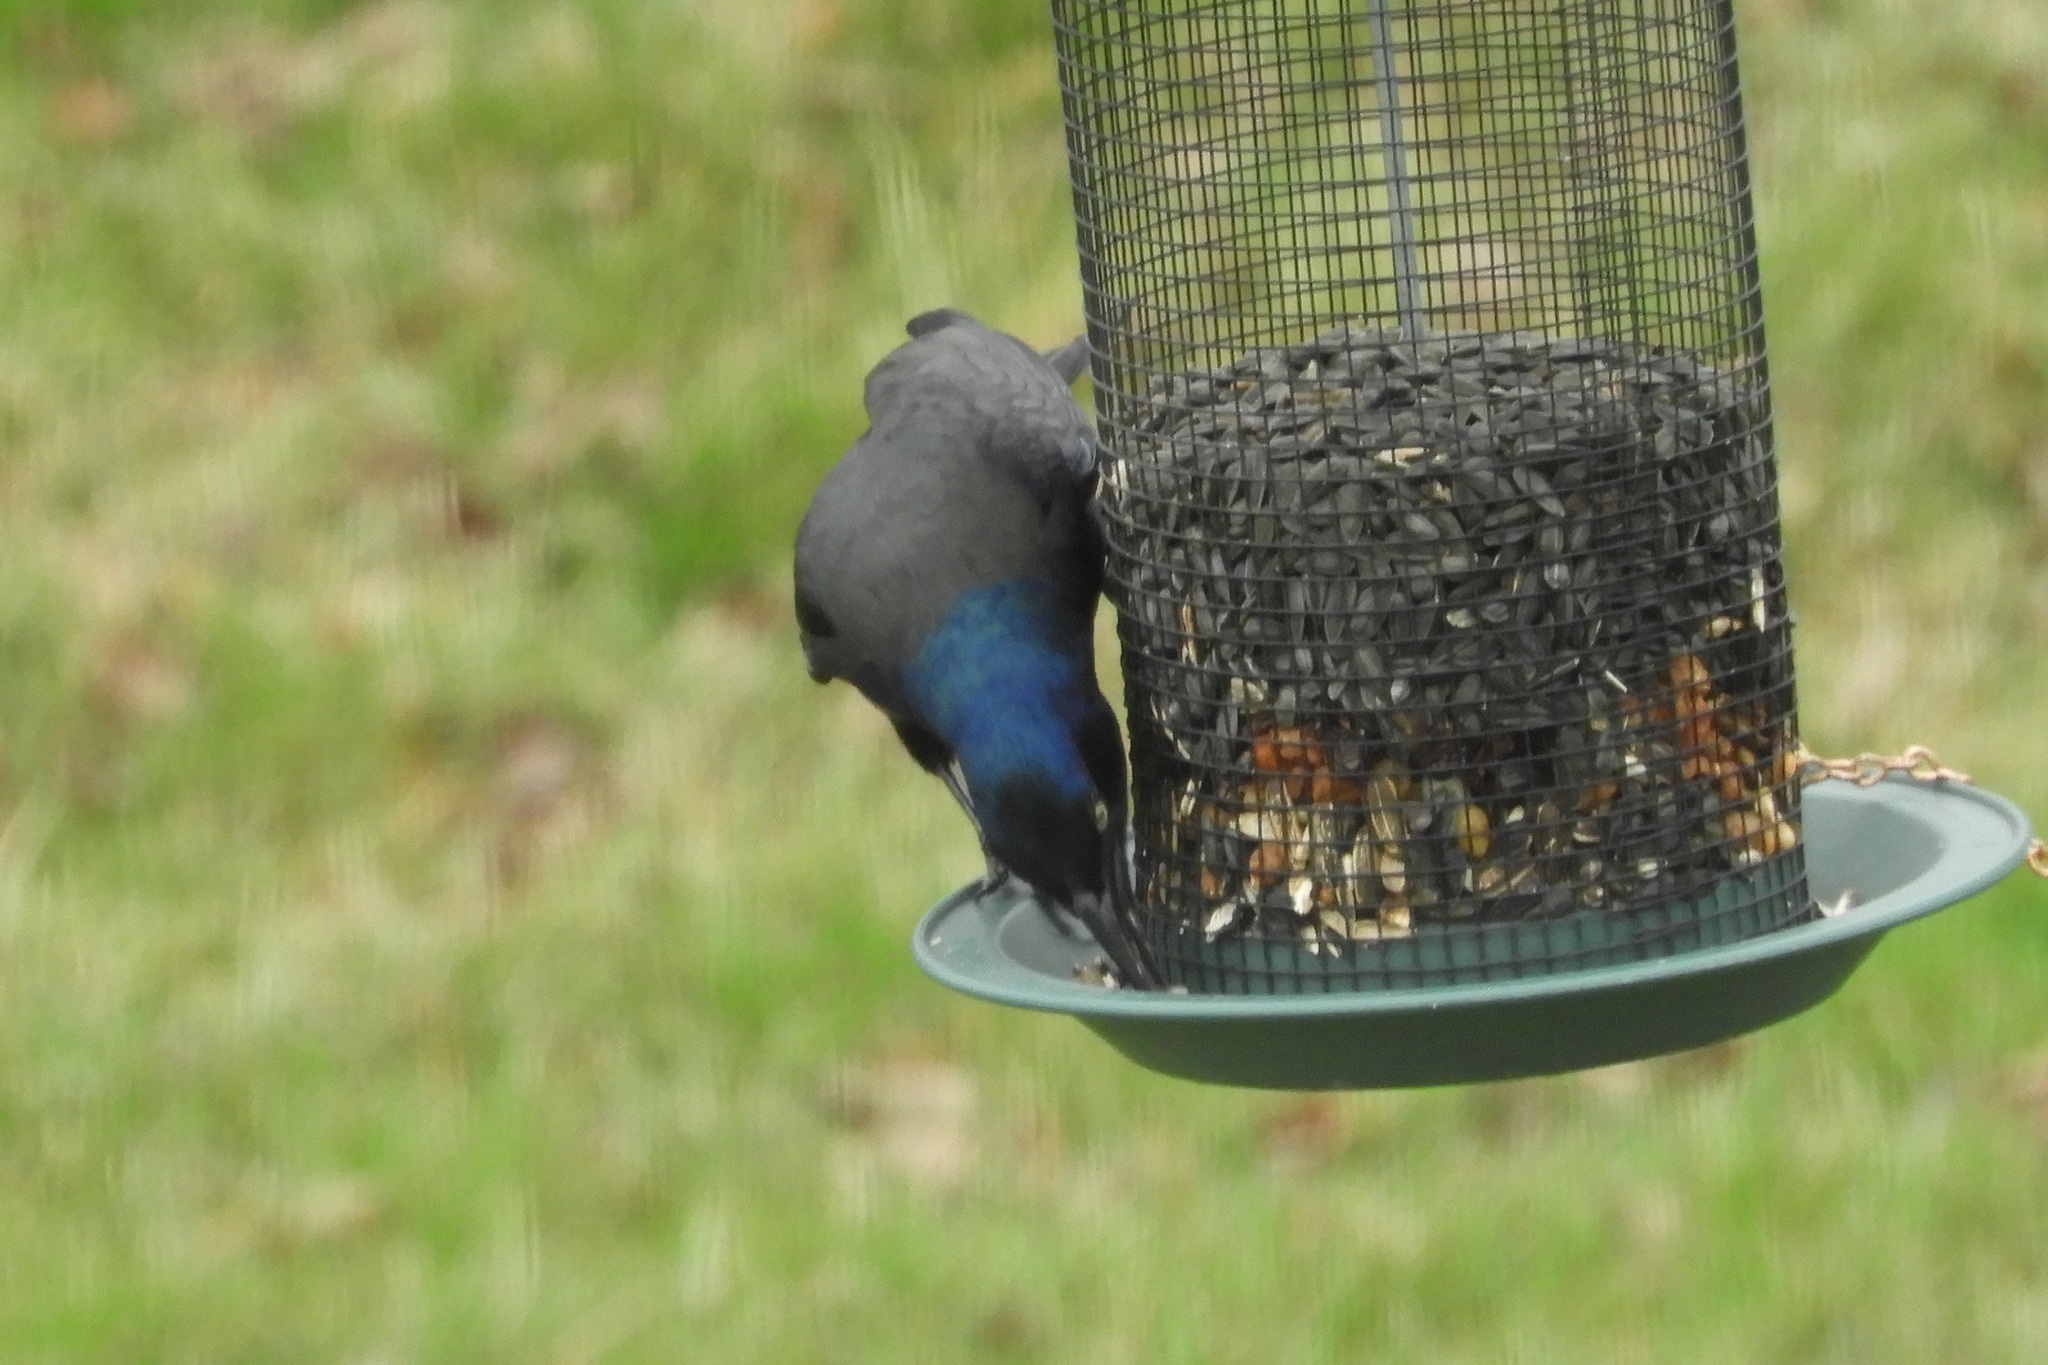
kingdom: Animalia
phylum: Chordata
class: Aves
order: Passeriformes
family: Icteridae
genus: Quiscalus
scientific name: Quiscalus quiscula
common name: Common grackle
